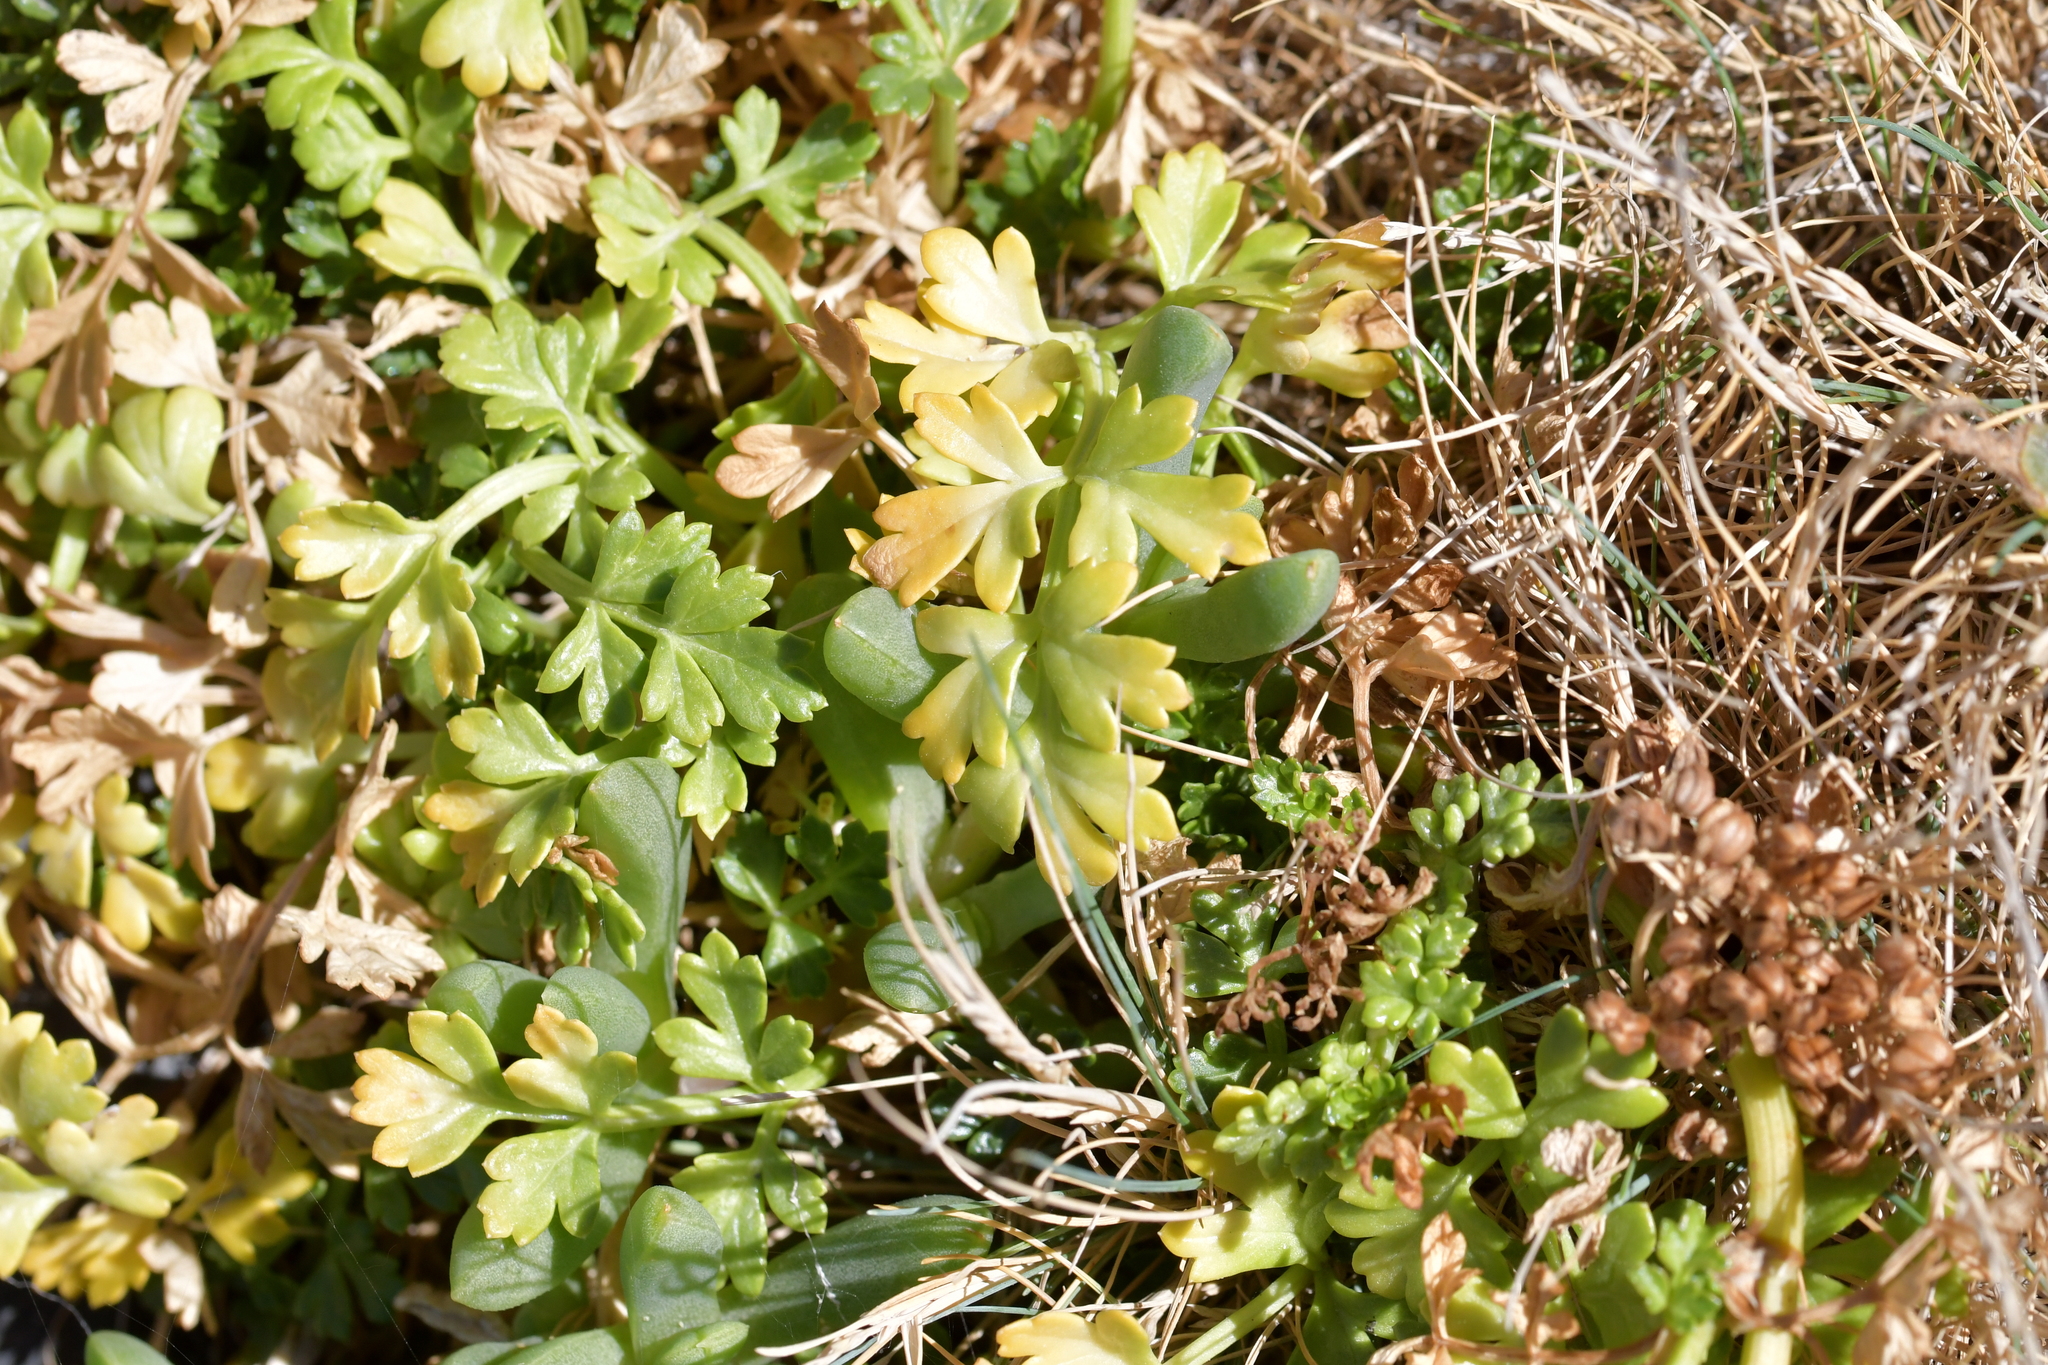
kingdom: Plantae
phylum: Tracheophyta
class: Magnoliopsida
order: Apiales
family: Apiaceae
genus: Apium
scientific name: Apium prostratum
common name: Prostrate marshwort
